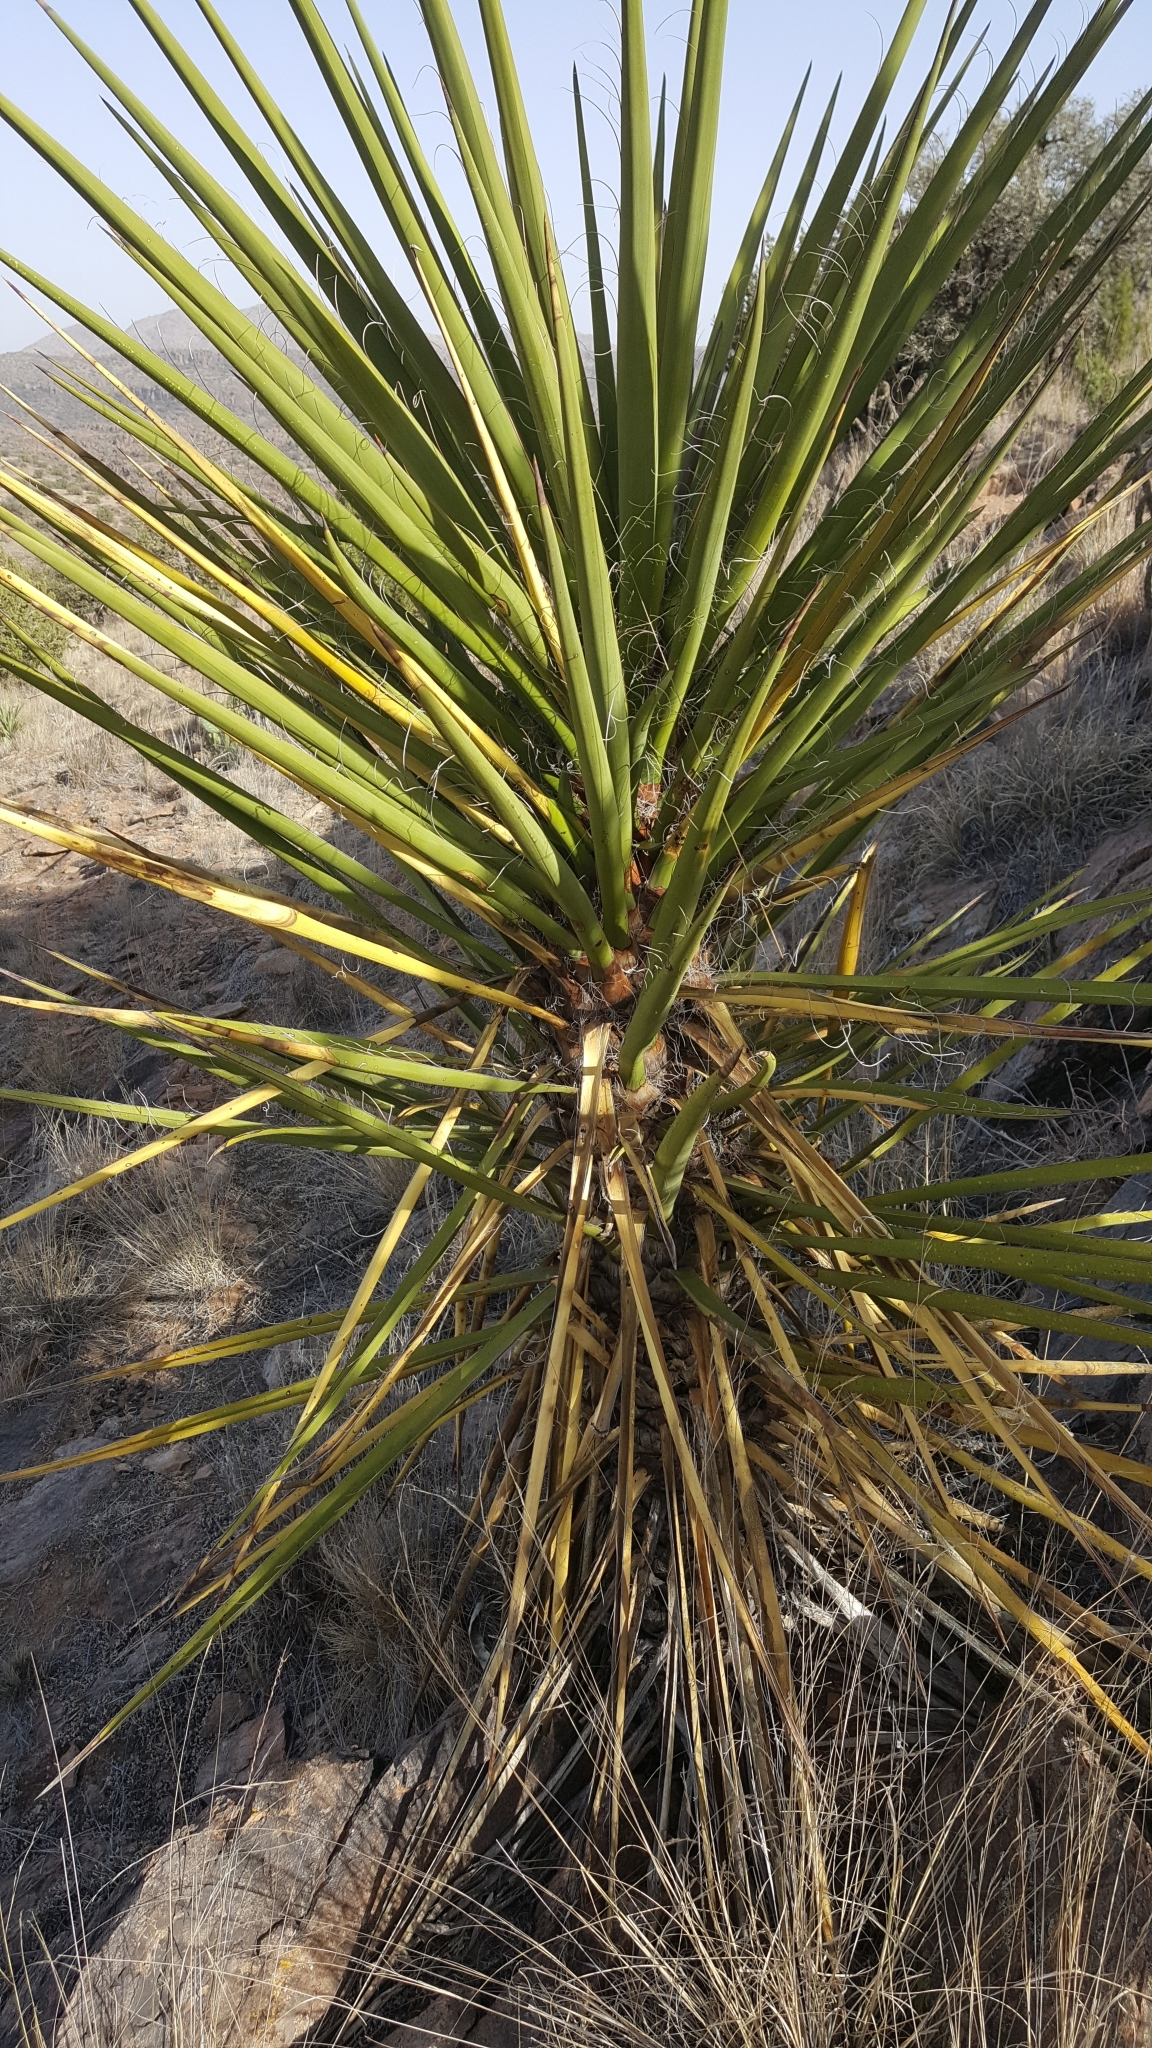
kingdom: Plantae
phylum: Tracheophyta
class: Liliopsida
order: Asparagales
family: Asparagaceae
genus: Yucca
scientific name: Yucca treculiana
